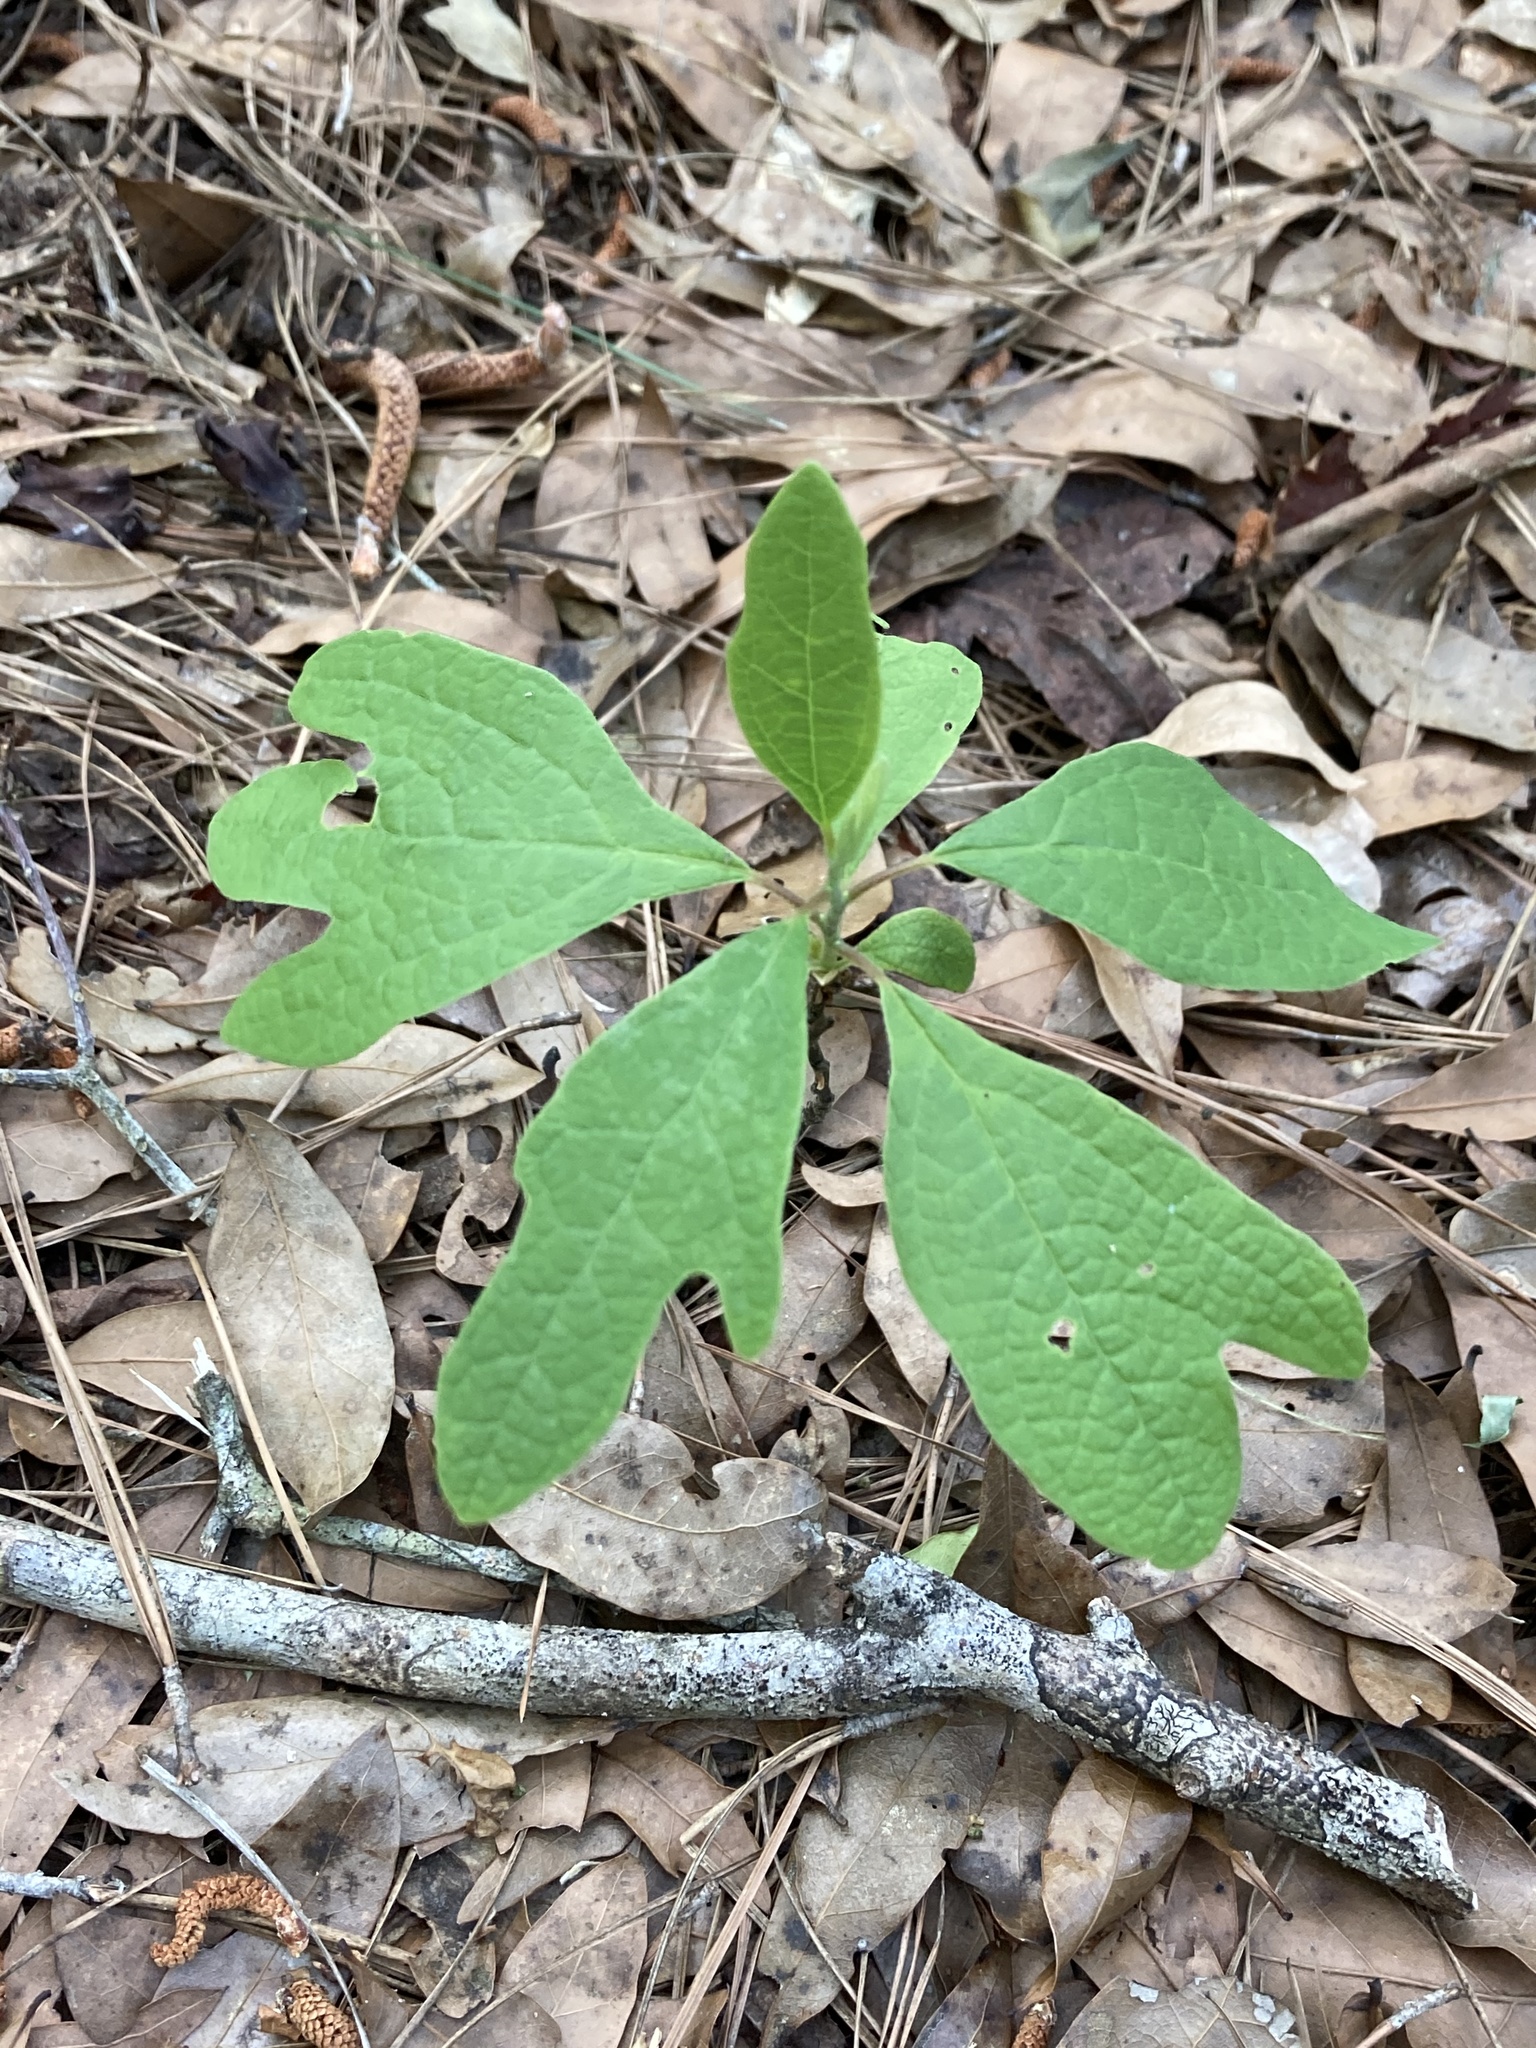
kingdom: Plantae
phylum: Tracheophyta
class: Magnoliopsida
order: Laurales
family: Lauraceae
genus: Sassafras
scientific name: Sassafras albidum
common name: Sassafras
